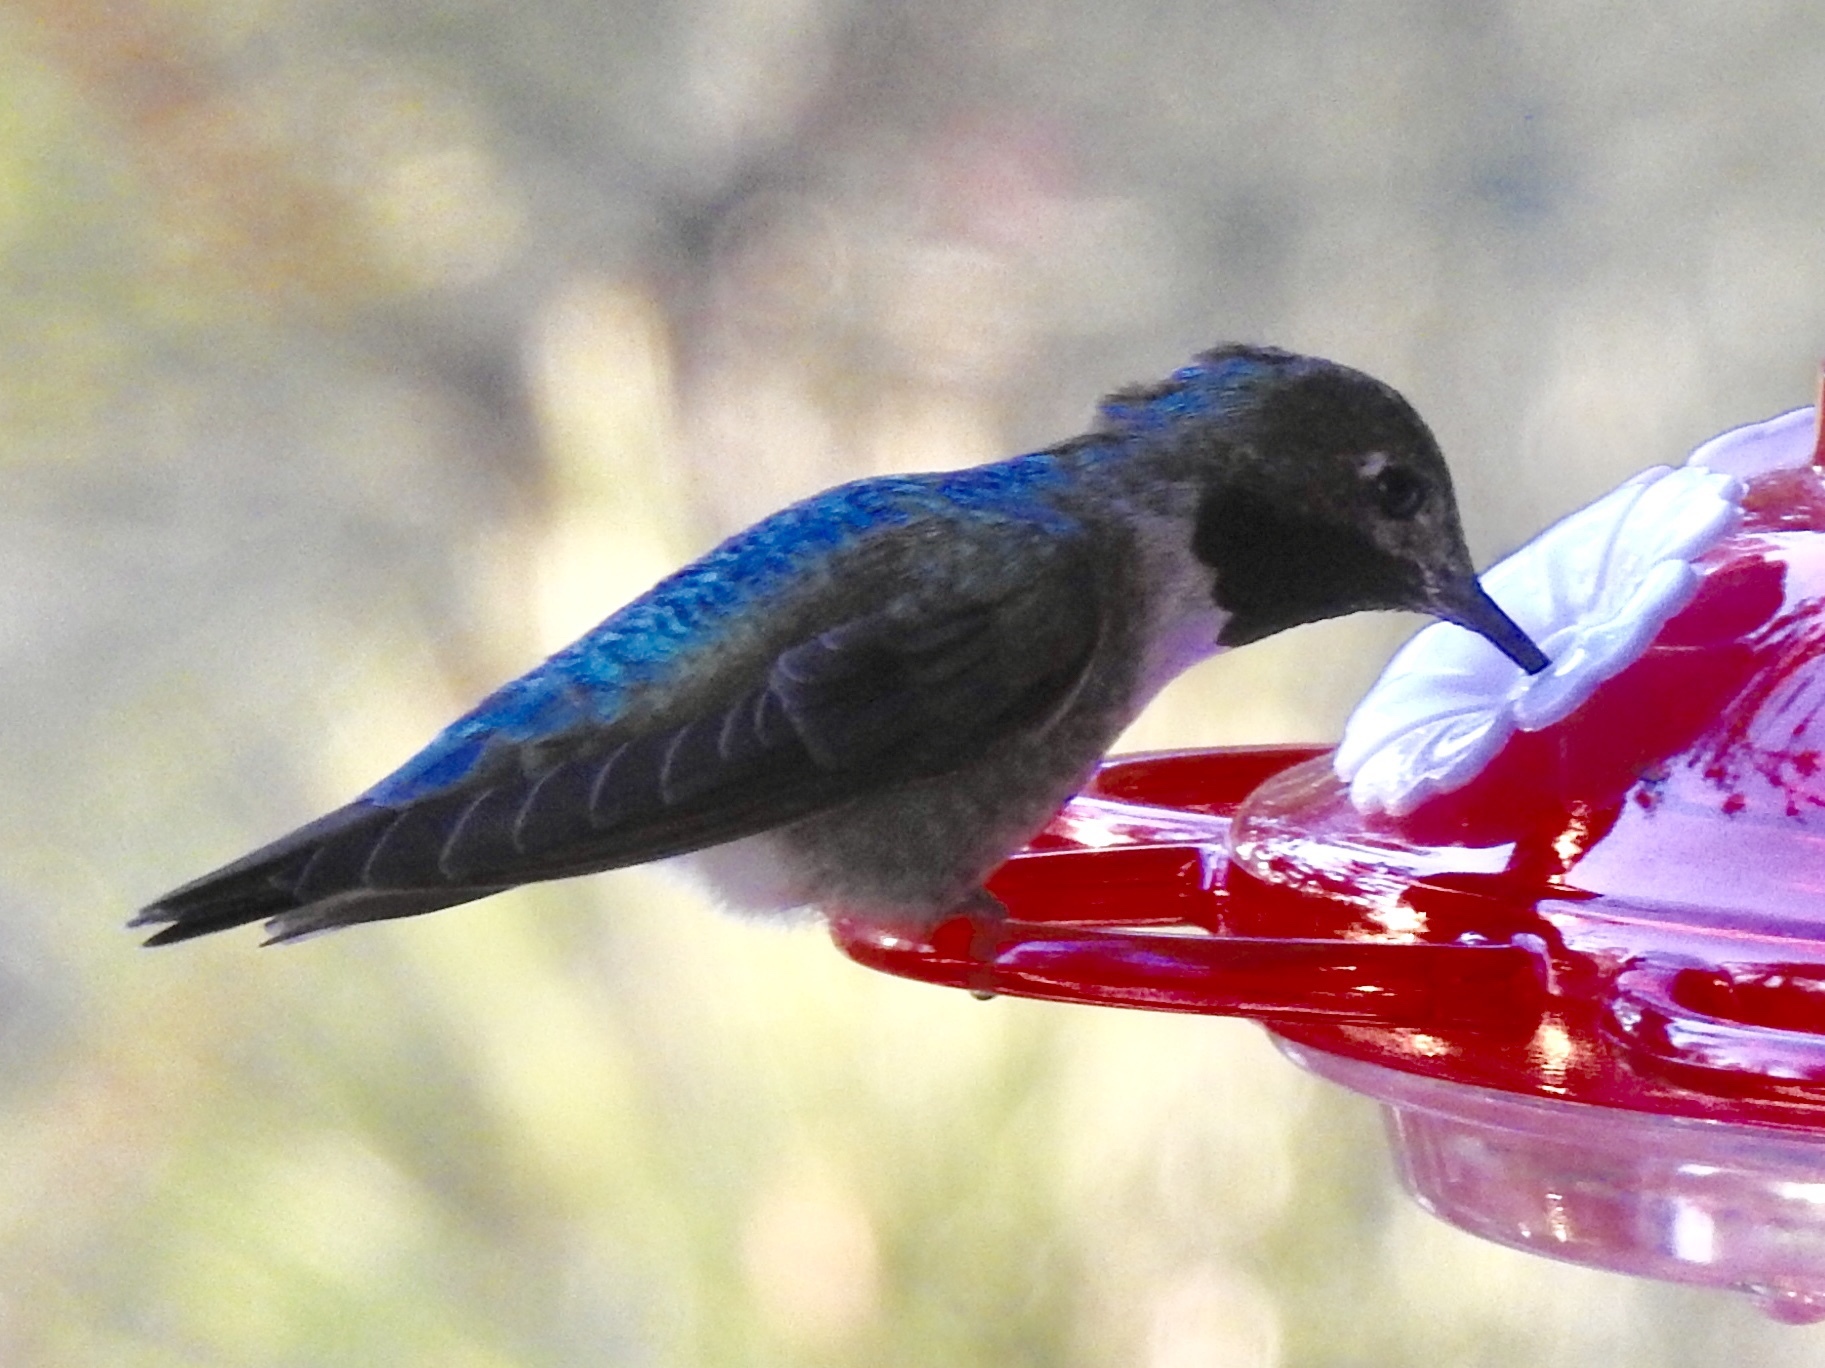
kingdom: Animalia
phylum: Chordata
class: Aves
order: Apodiformes
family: Trochilidae
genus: Selasphorus
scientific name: Selasphorus platycercus
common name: Broad-tailed hummingbird
